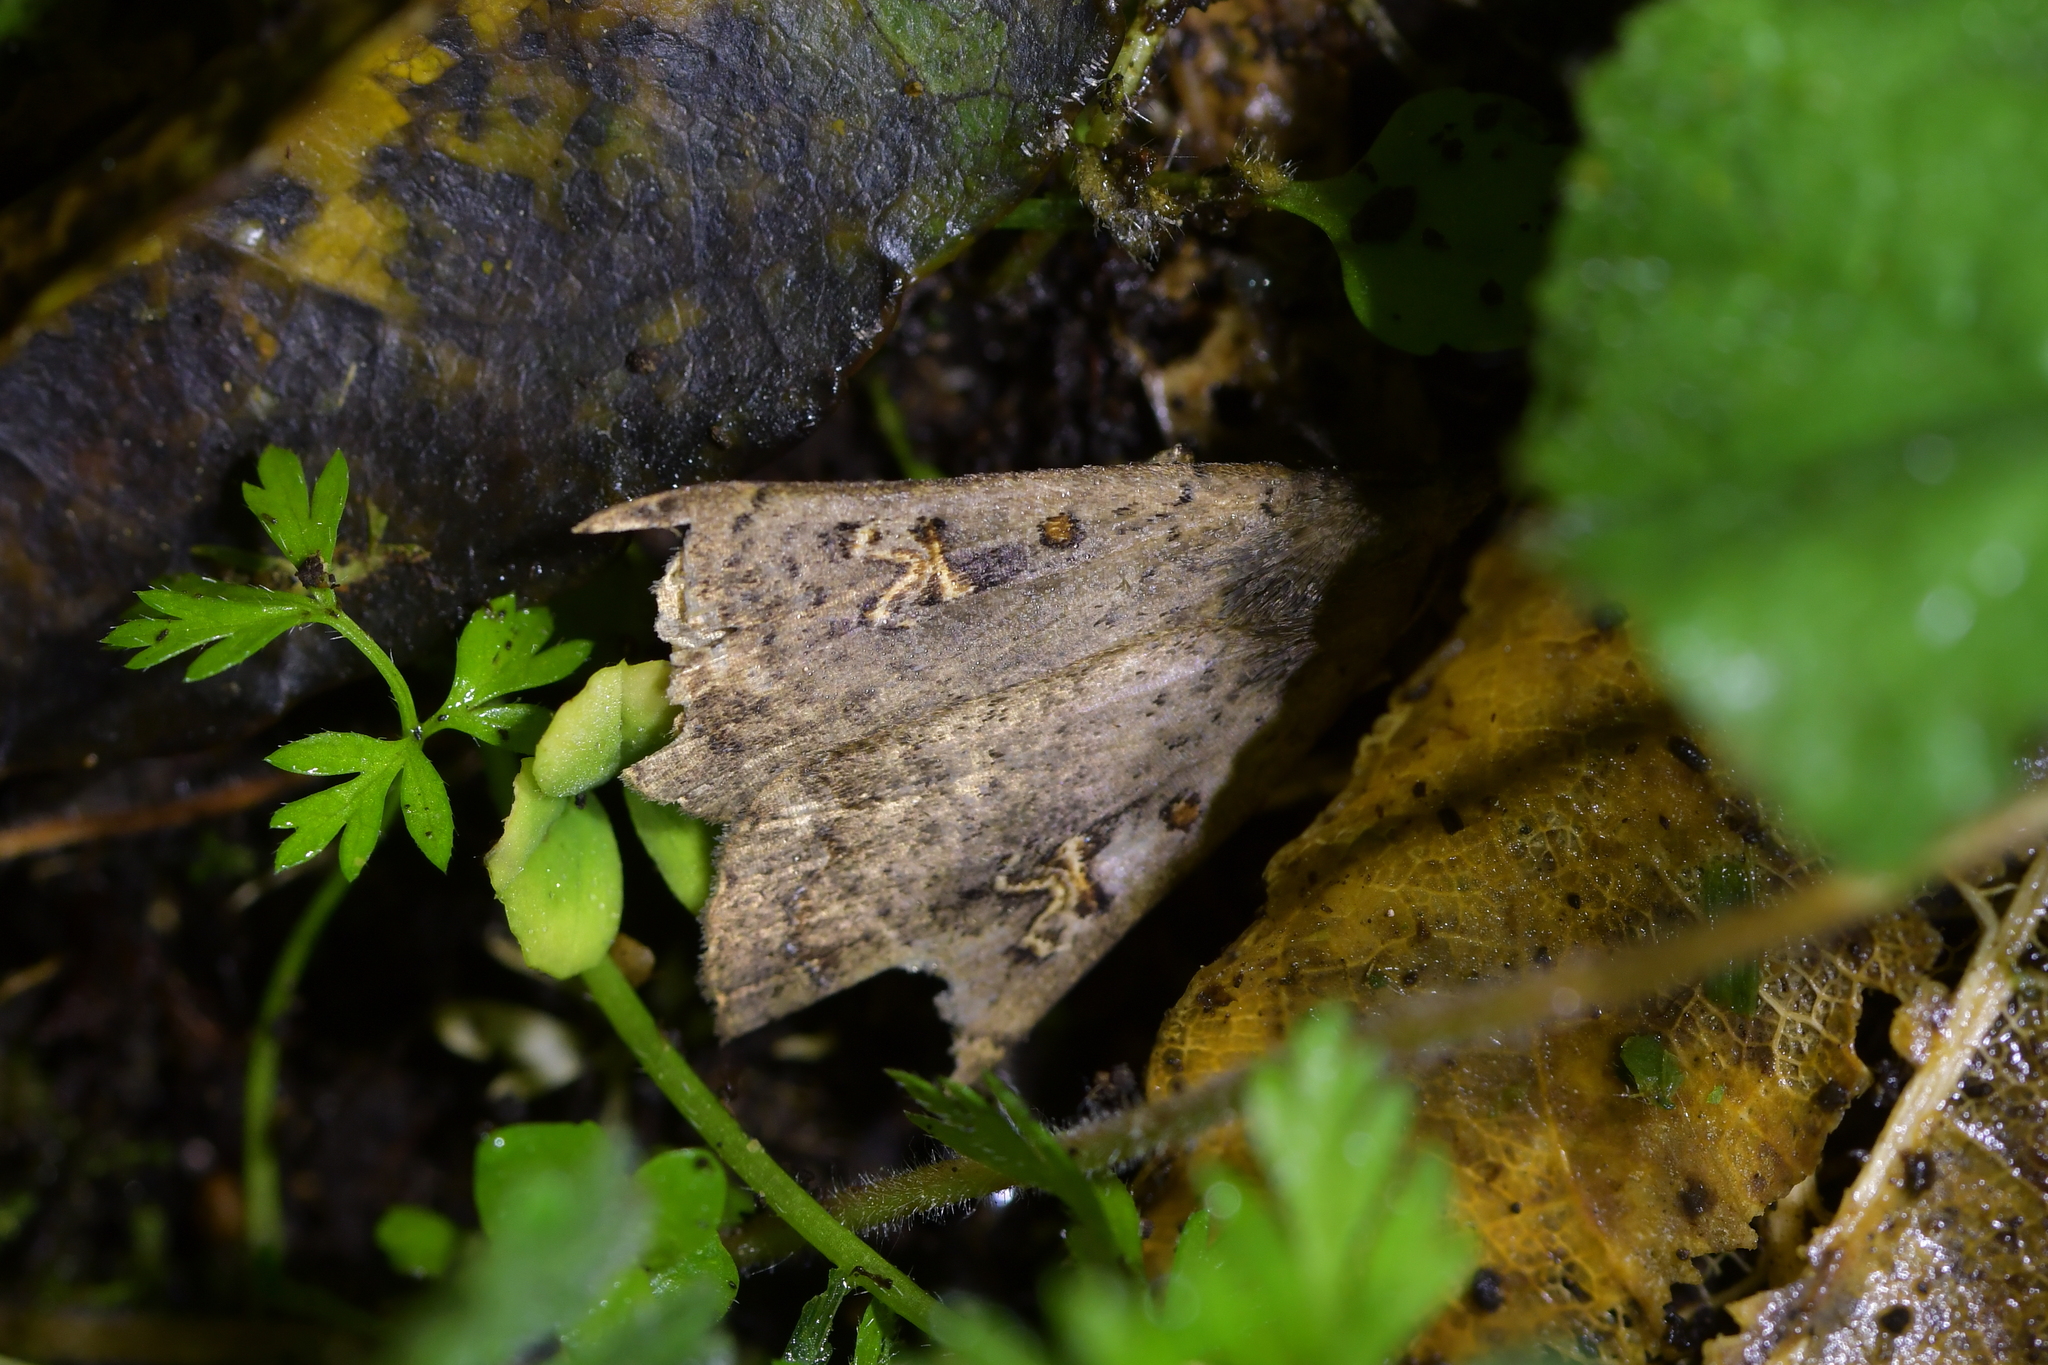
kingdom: Animalia
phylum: Arthropoda
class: Insecta
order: Lepidoptera
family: Erebidae
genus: Rhapsa
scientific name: Rhapsa scotosialis
